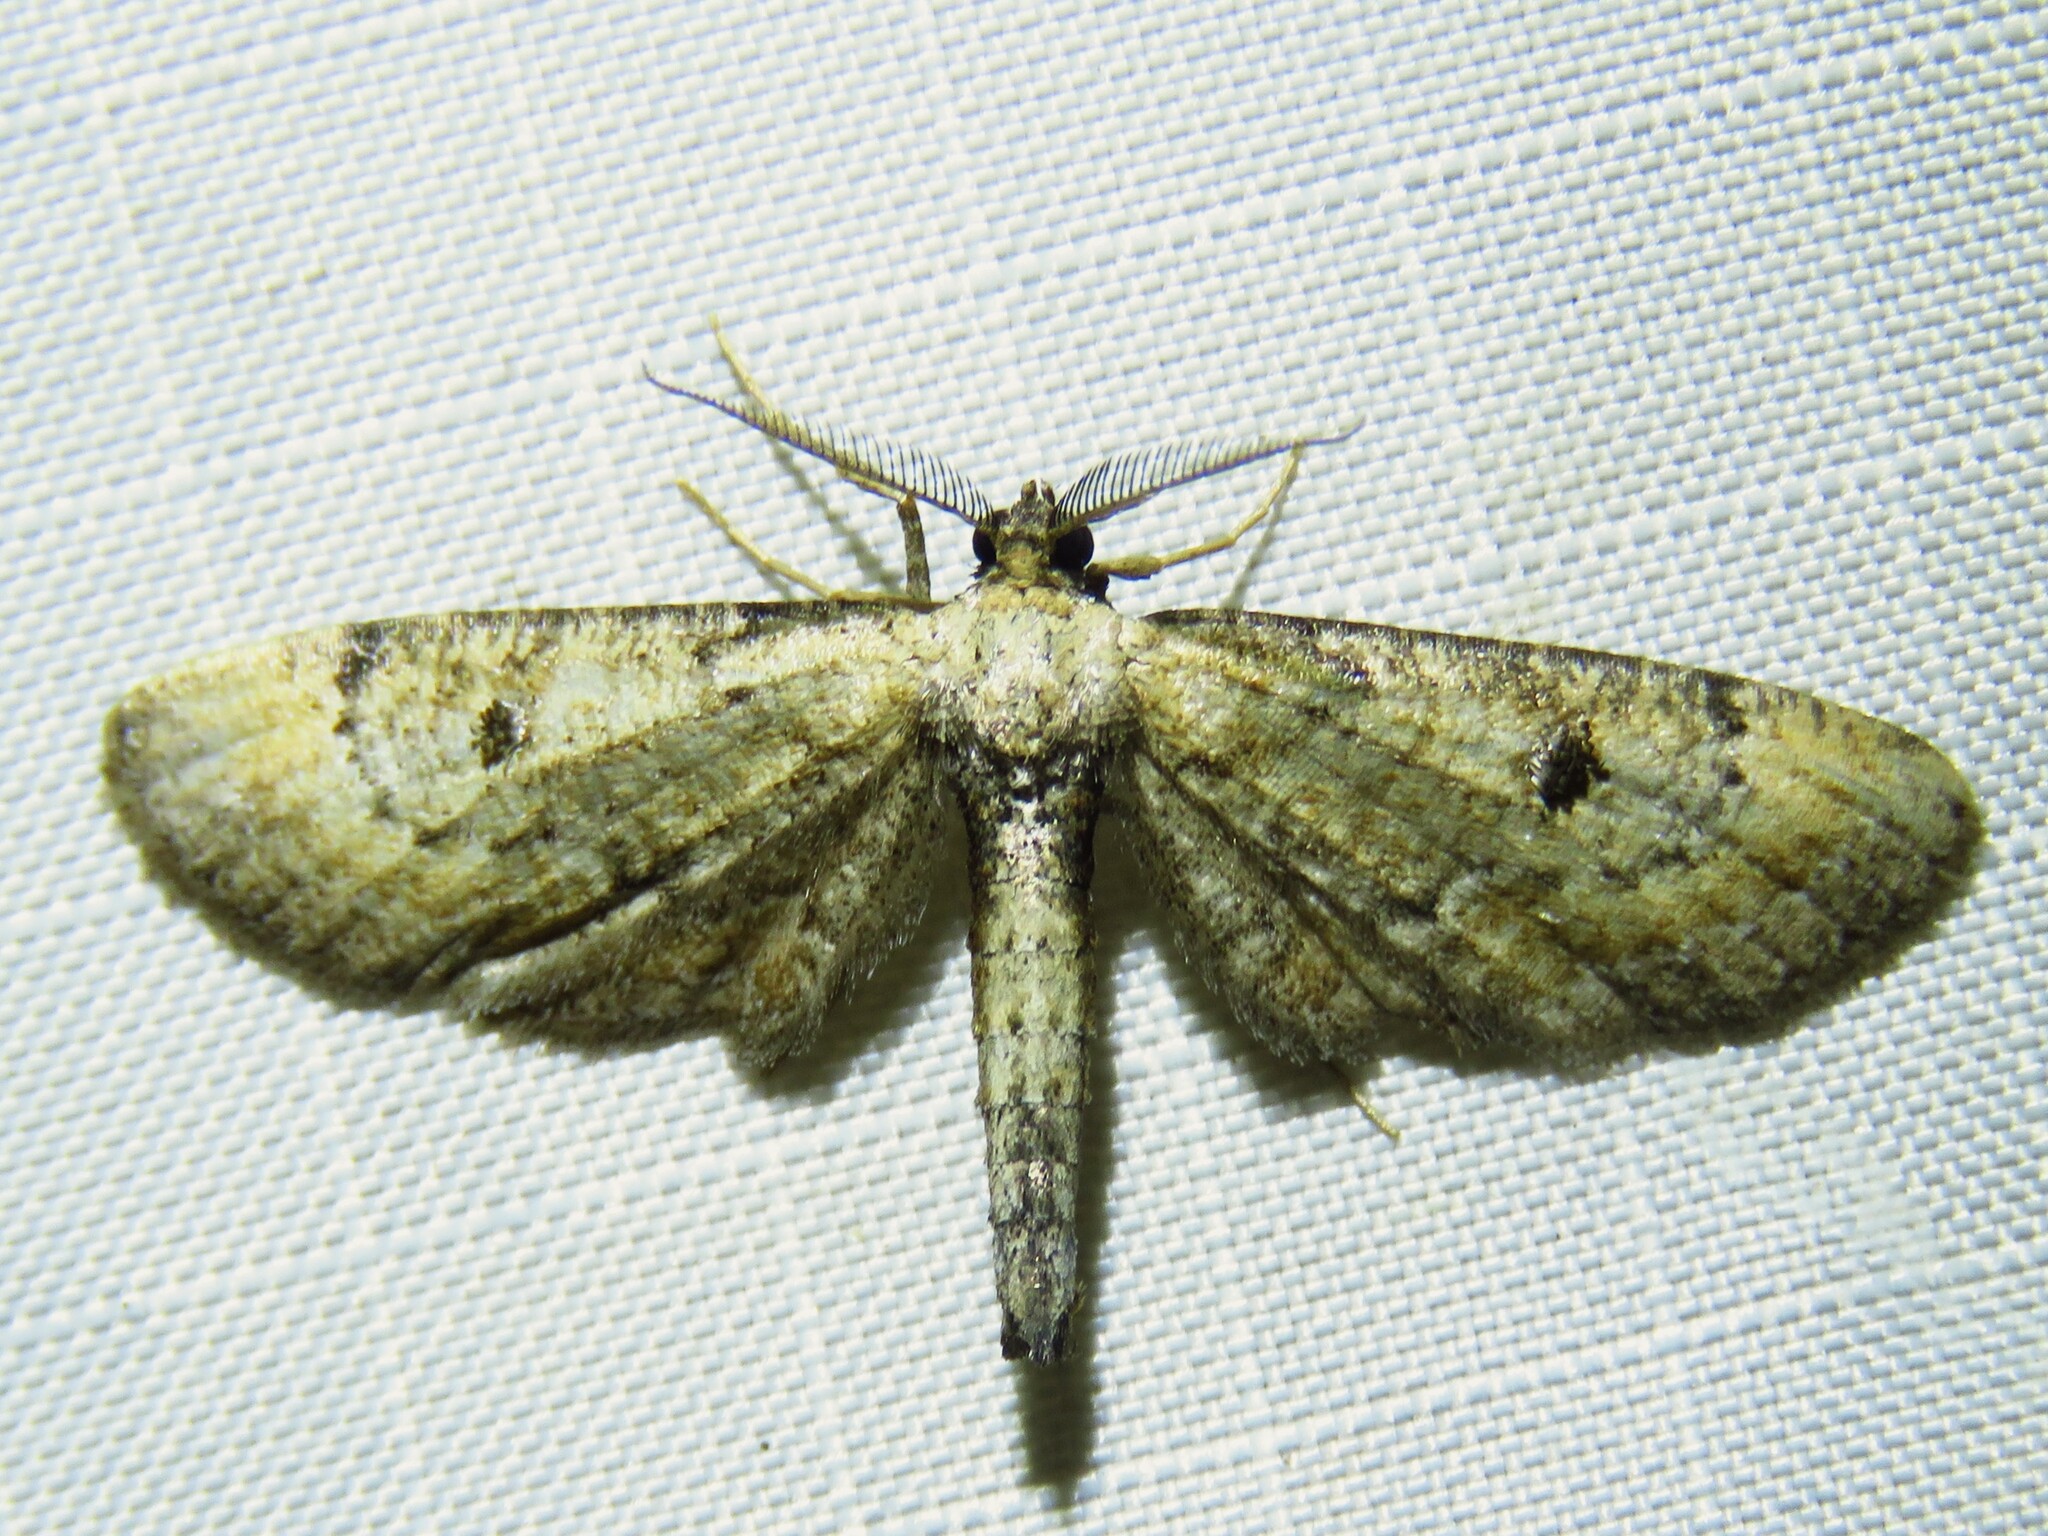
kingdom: Animalia
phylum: Arthropoda
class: Insecta
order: Lepidoptera
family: Geometridae
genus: Tornos
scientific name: Tornos scolopacinaria
